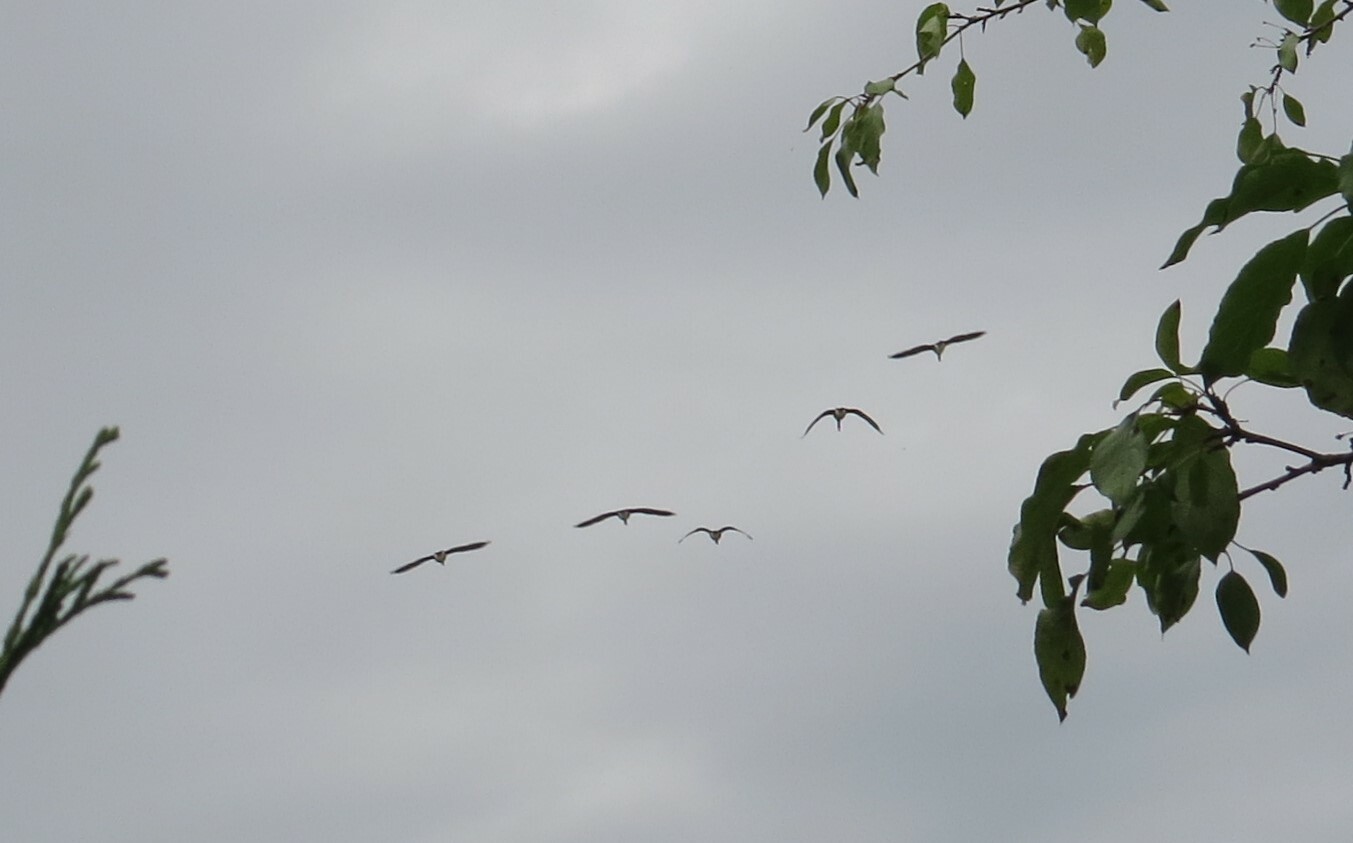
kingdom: Animalia
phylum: Chordata
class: Aves
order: Anseriformes
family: Anatidae
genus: Branta
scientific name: Branta canadensis
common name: Canada goose
